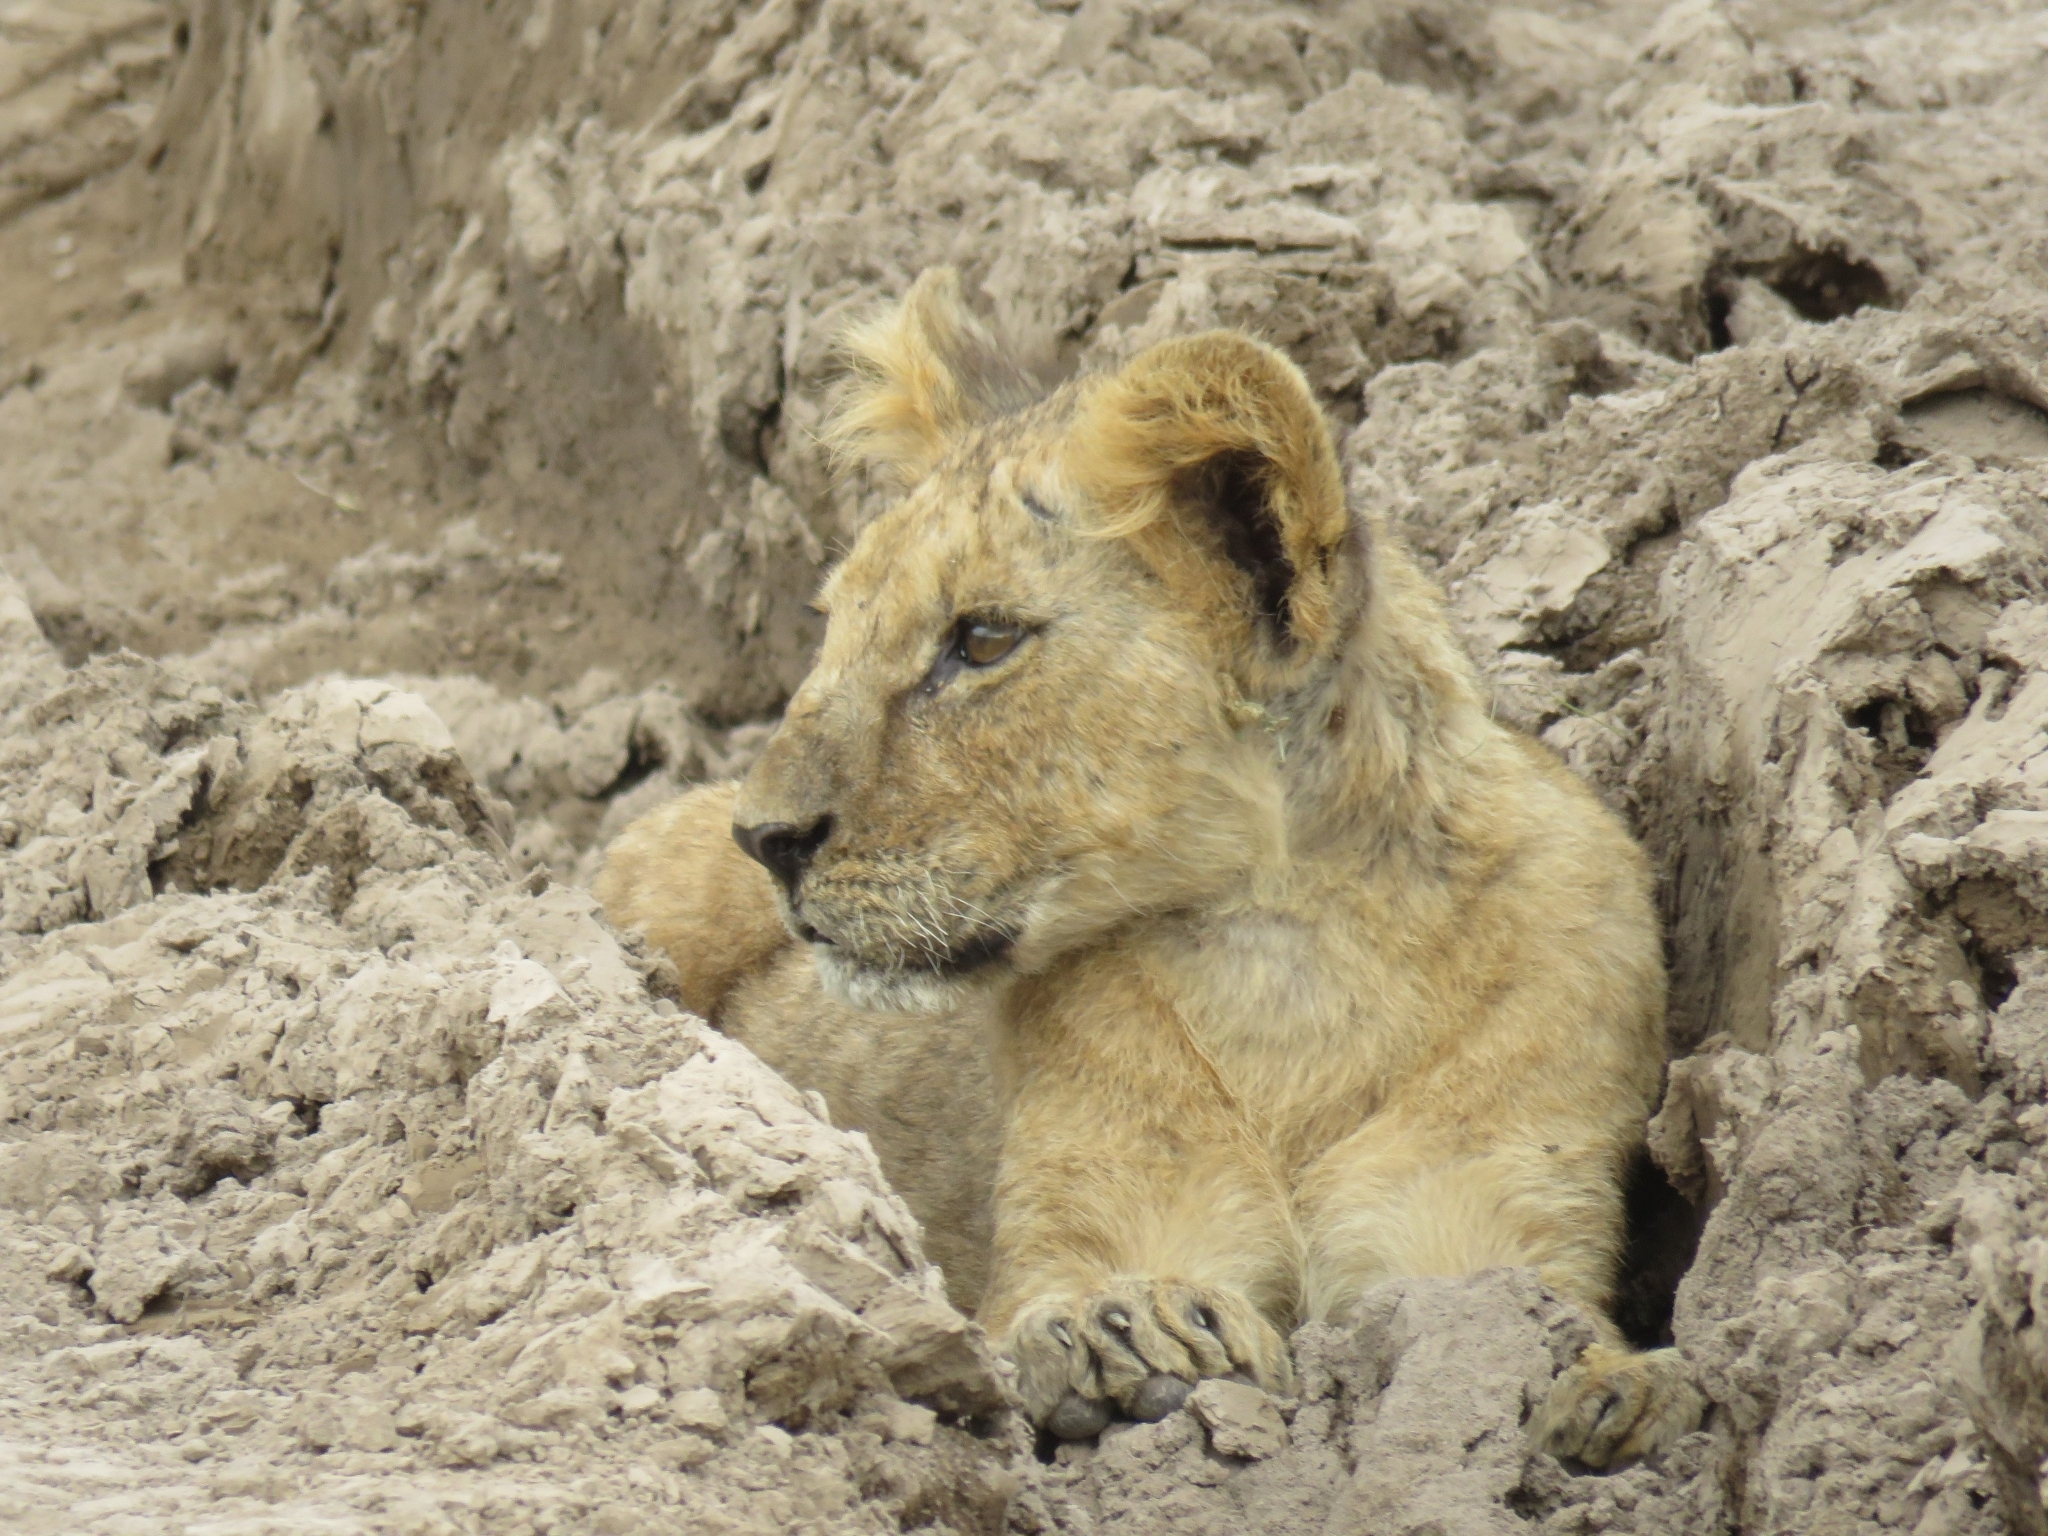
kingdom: Animalia
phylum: Chordata
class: Mammalia
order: Carnivora
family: Felidae
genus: Panthera
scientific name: Panthera leo
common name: Lion
